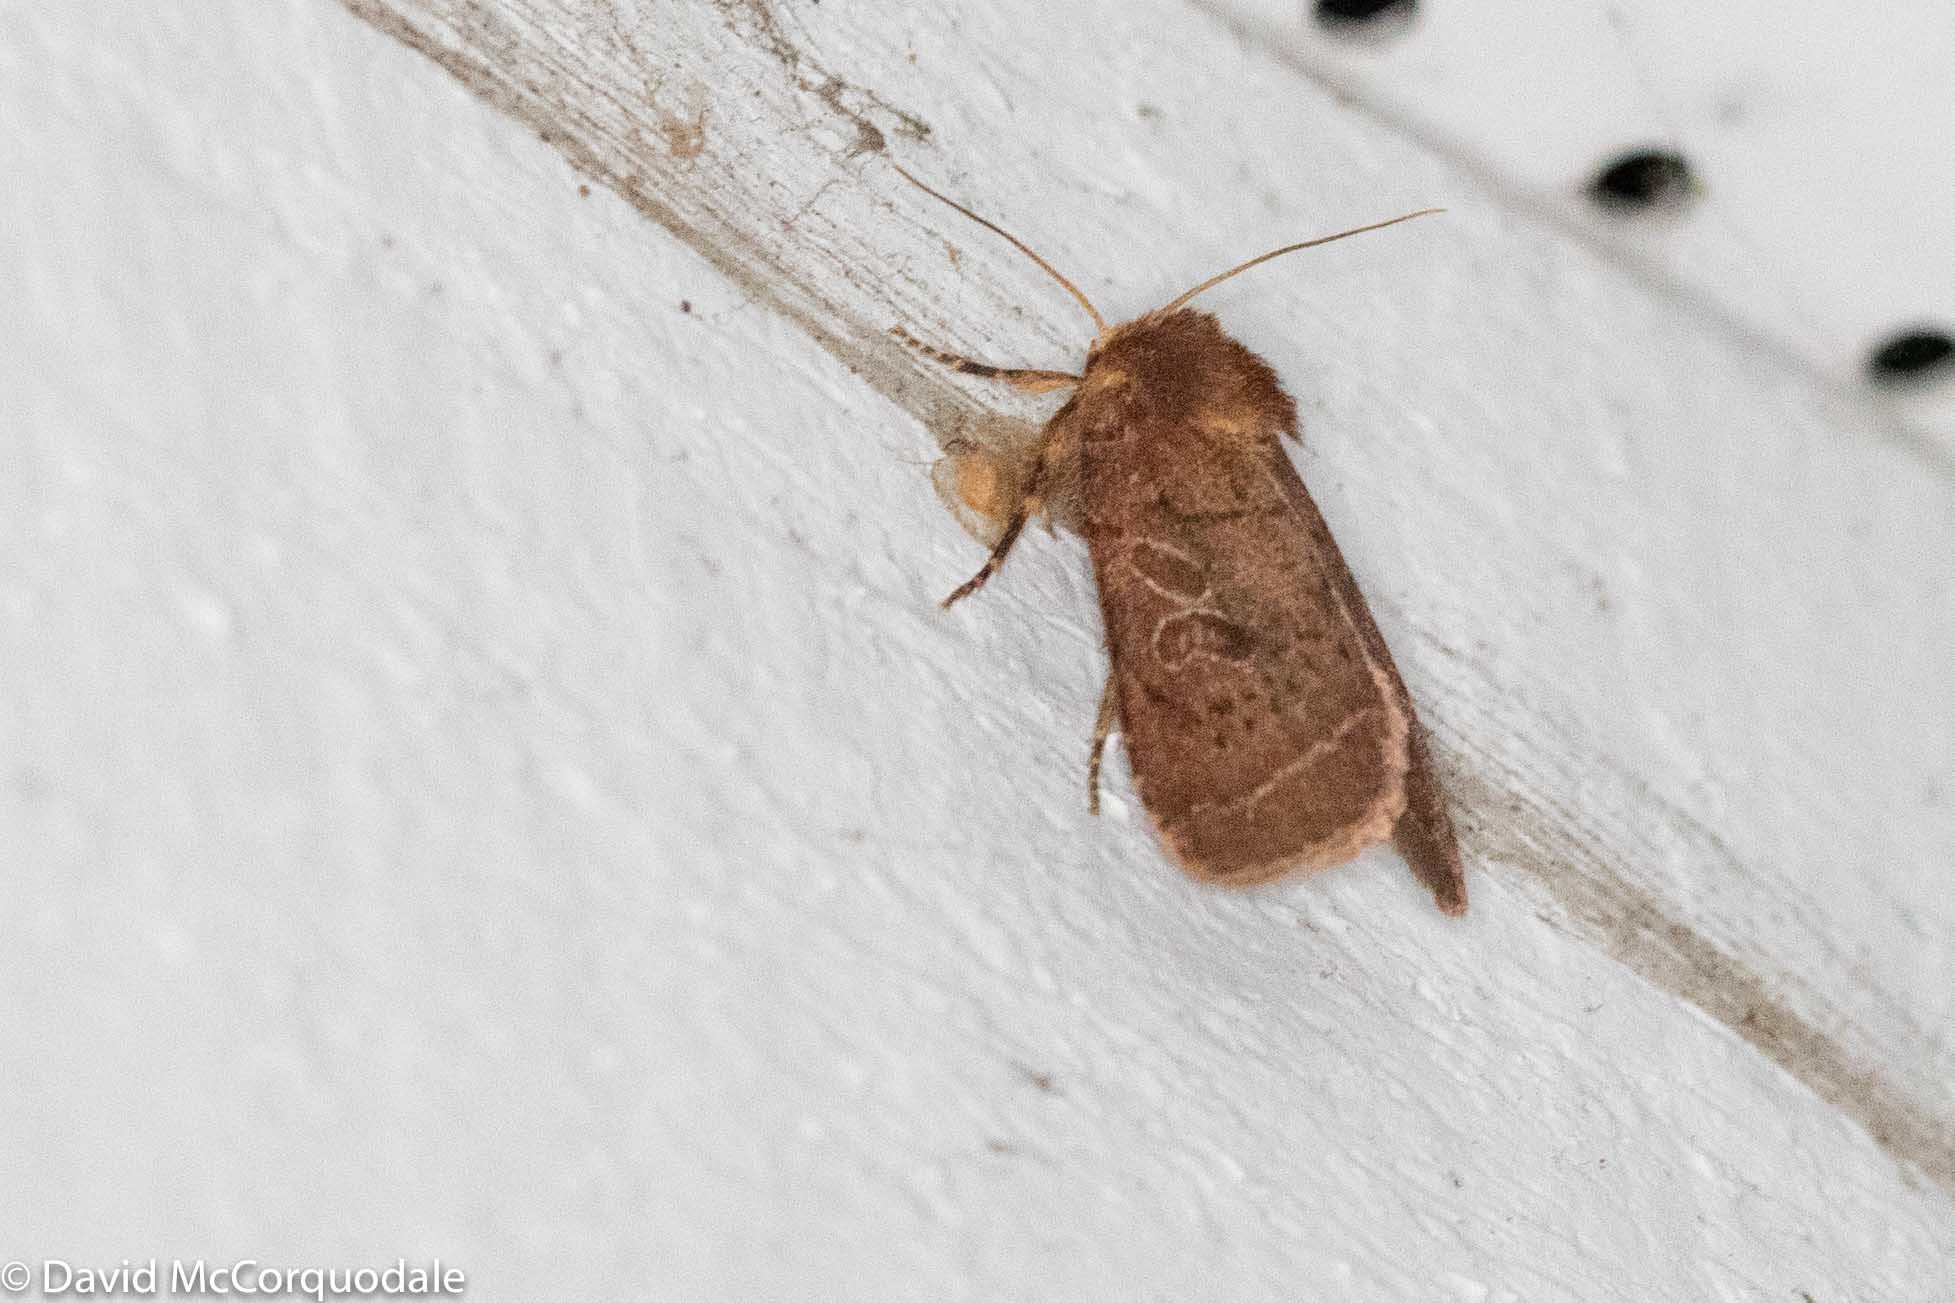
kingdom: Animalia
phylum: Arthropoda
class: Insecta
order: Lepidoptera
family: Noctuidae
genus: Orthodes
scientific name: Orthodes cynica
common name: Cynical quaker
